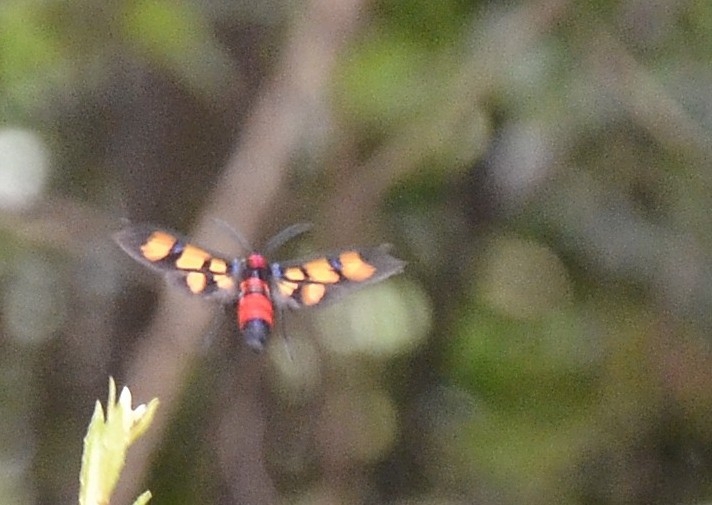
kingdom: Animalia
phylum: Arthropoda
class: Insecta
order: Lepidoptera
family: Erebidae
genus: Euchromia
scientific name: Euchromia polymena
